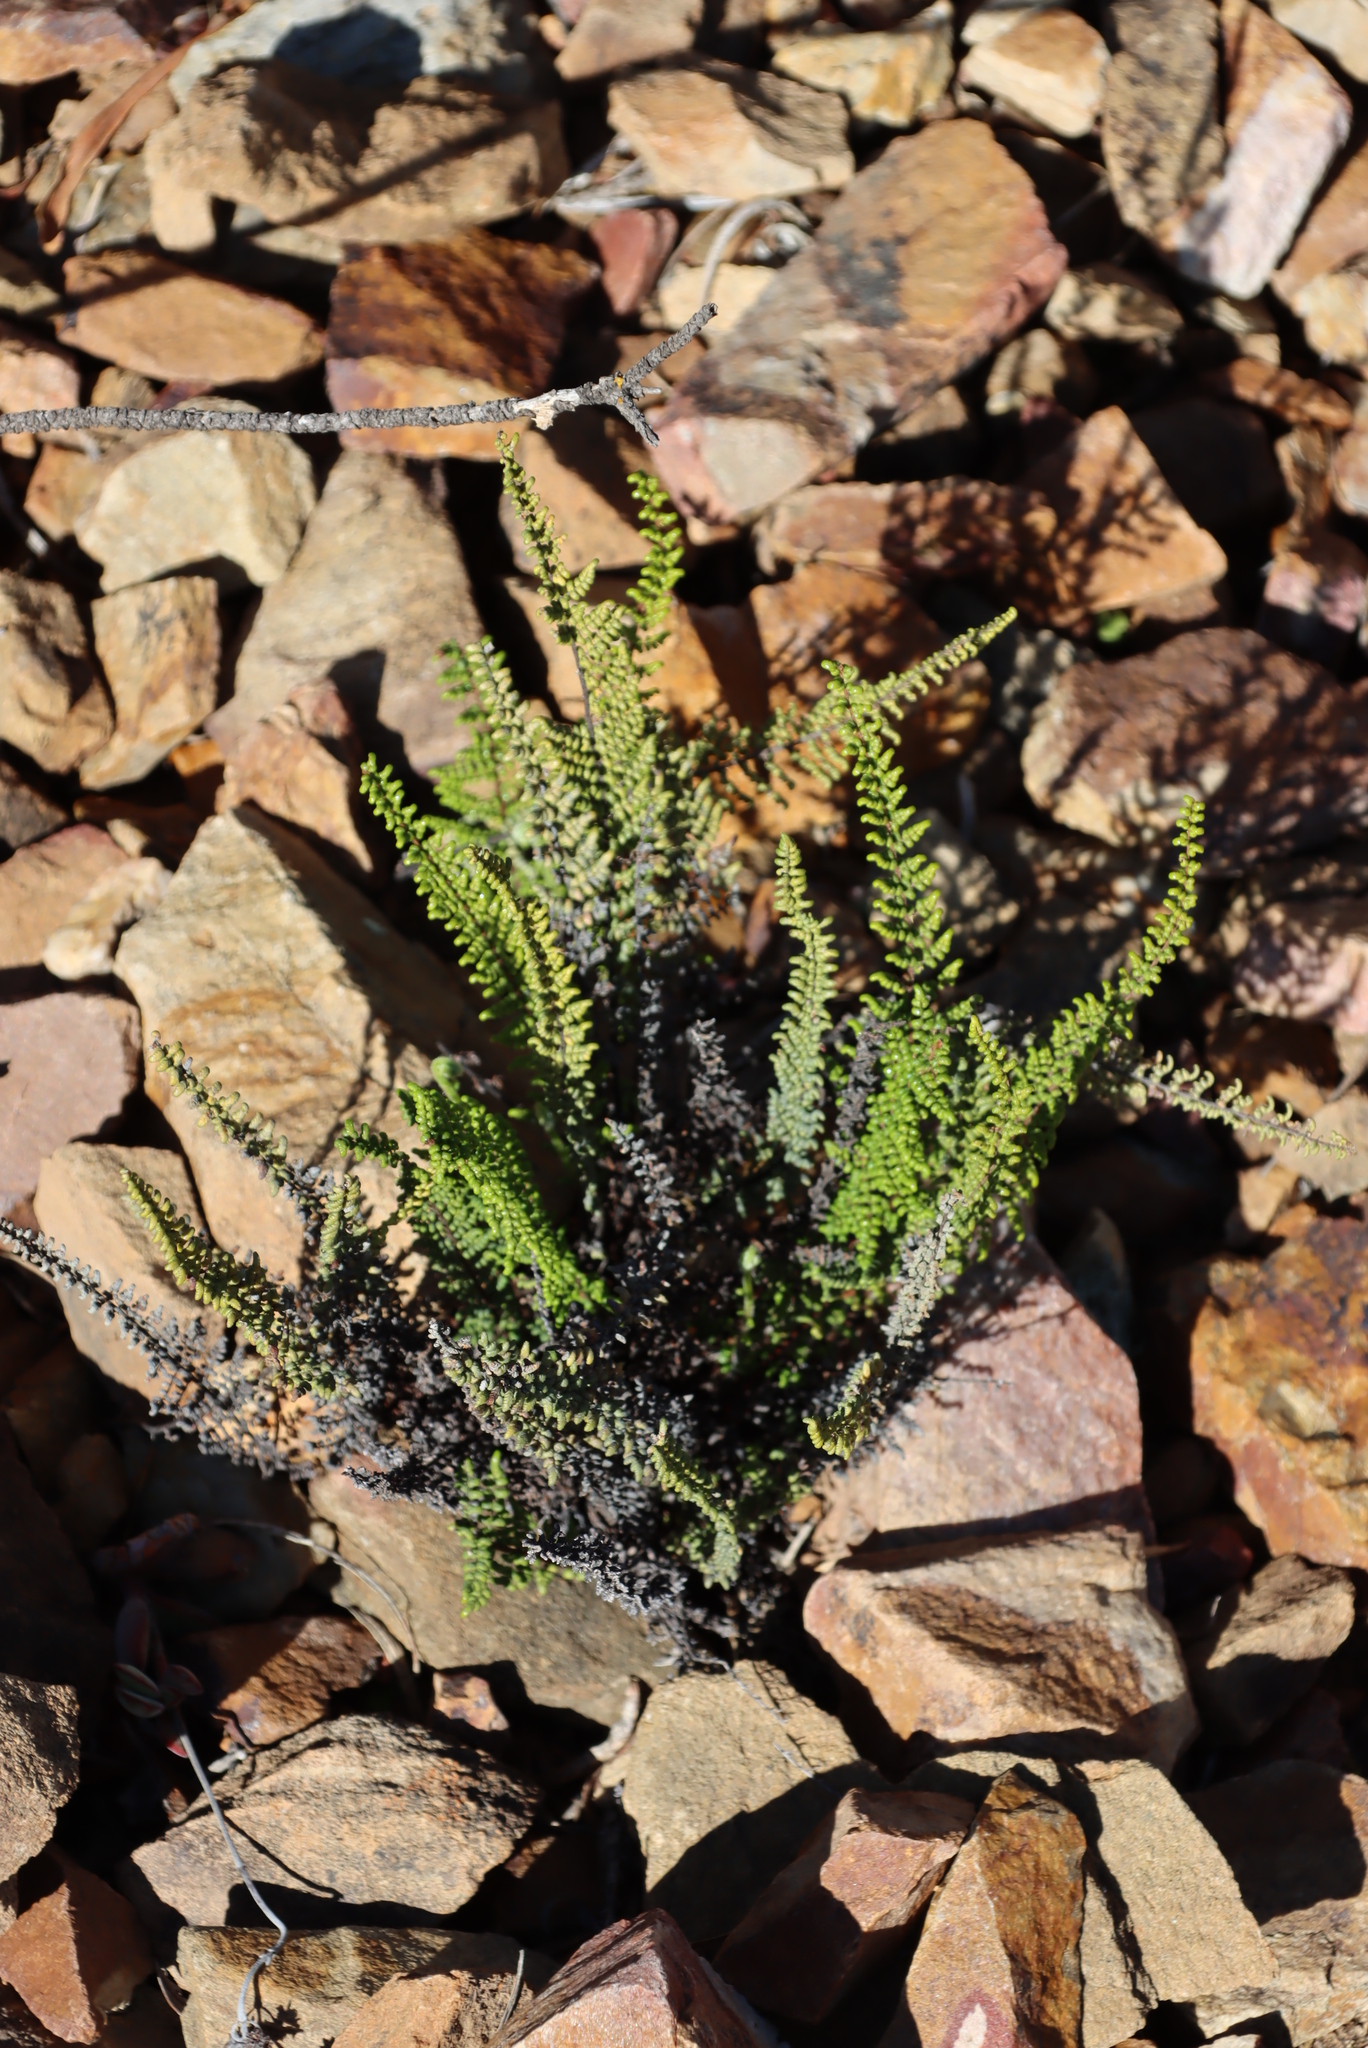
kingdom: Plantae
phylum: Tracheophyta
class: Polypodiopsida
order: Polypodiales
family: Pteridaceae
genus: Cheilanthes
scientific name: Cheilanthes parviloba
